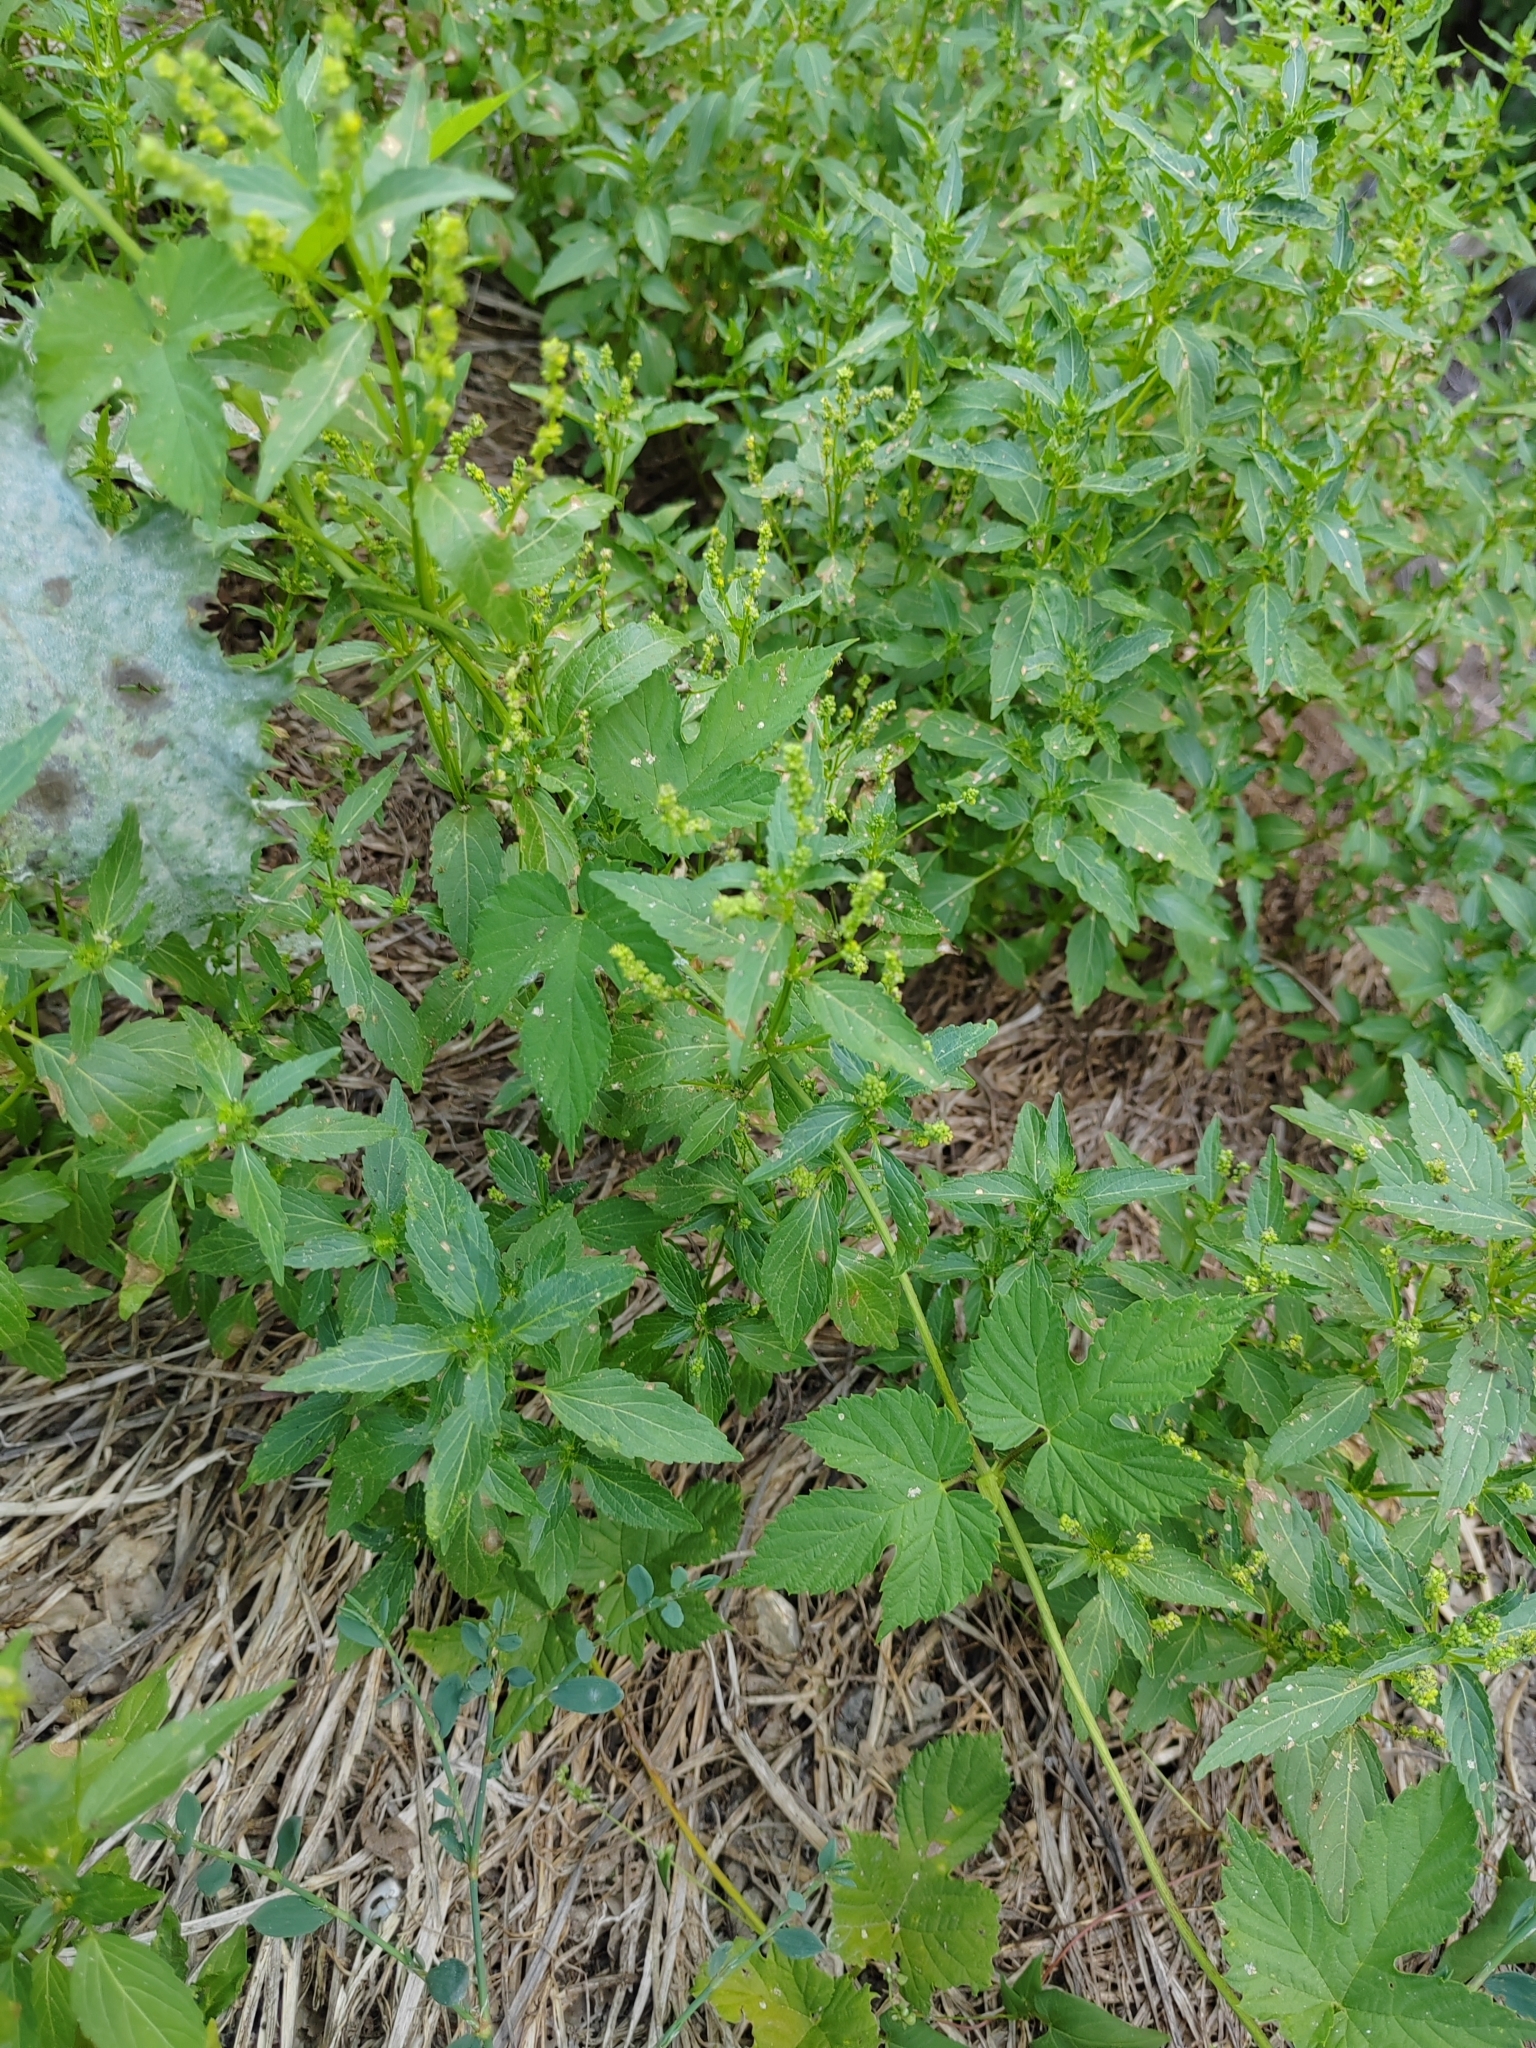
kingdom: Plantae
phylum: Tracheophyta
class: Magnoliopsida
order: Malpighiales
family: Euphorbiaceae
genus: Mercurialis
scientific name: Mercurialis annua
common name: Annual mercury
